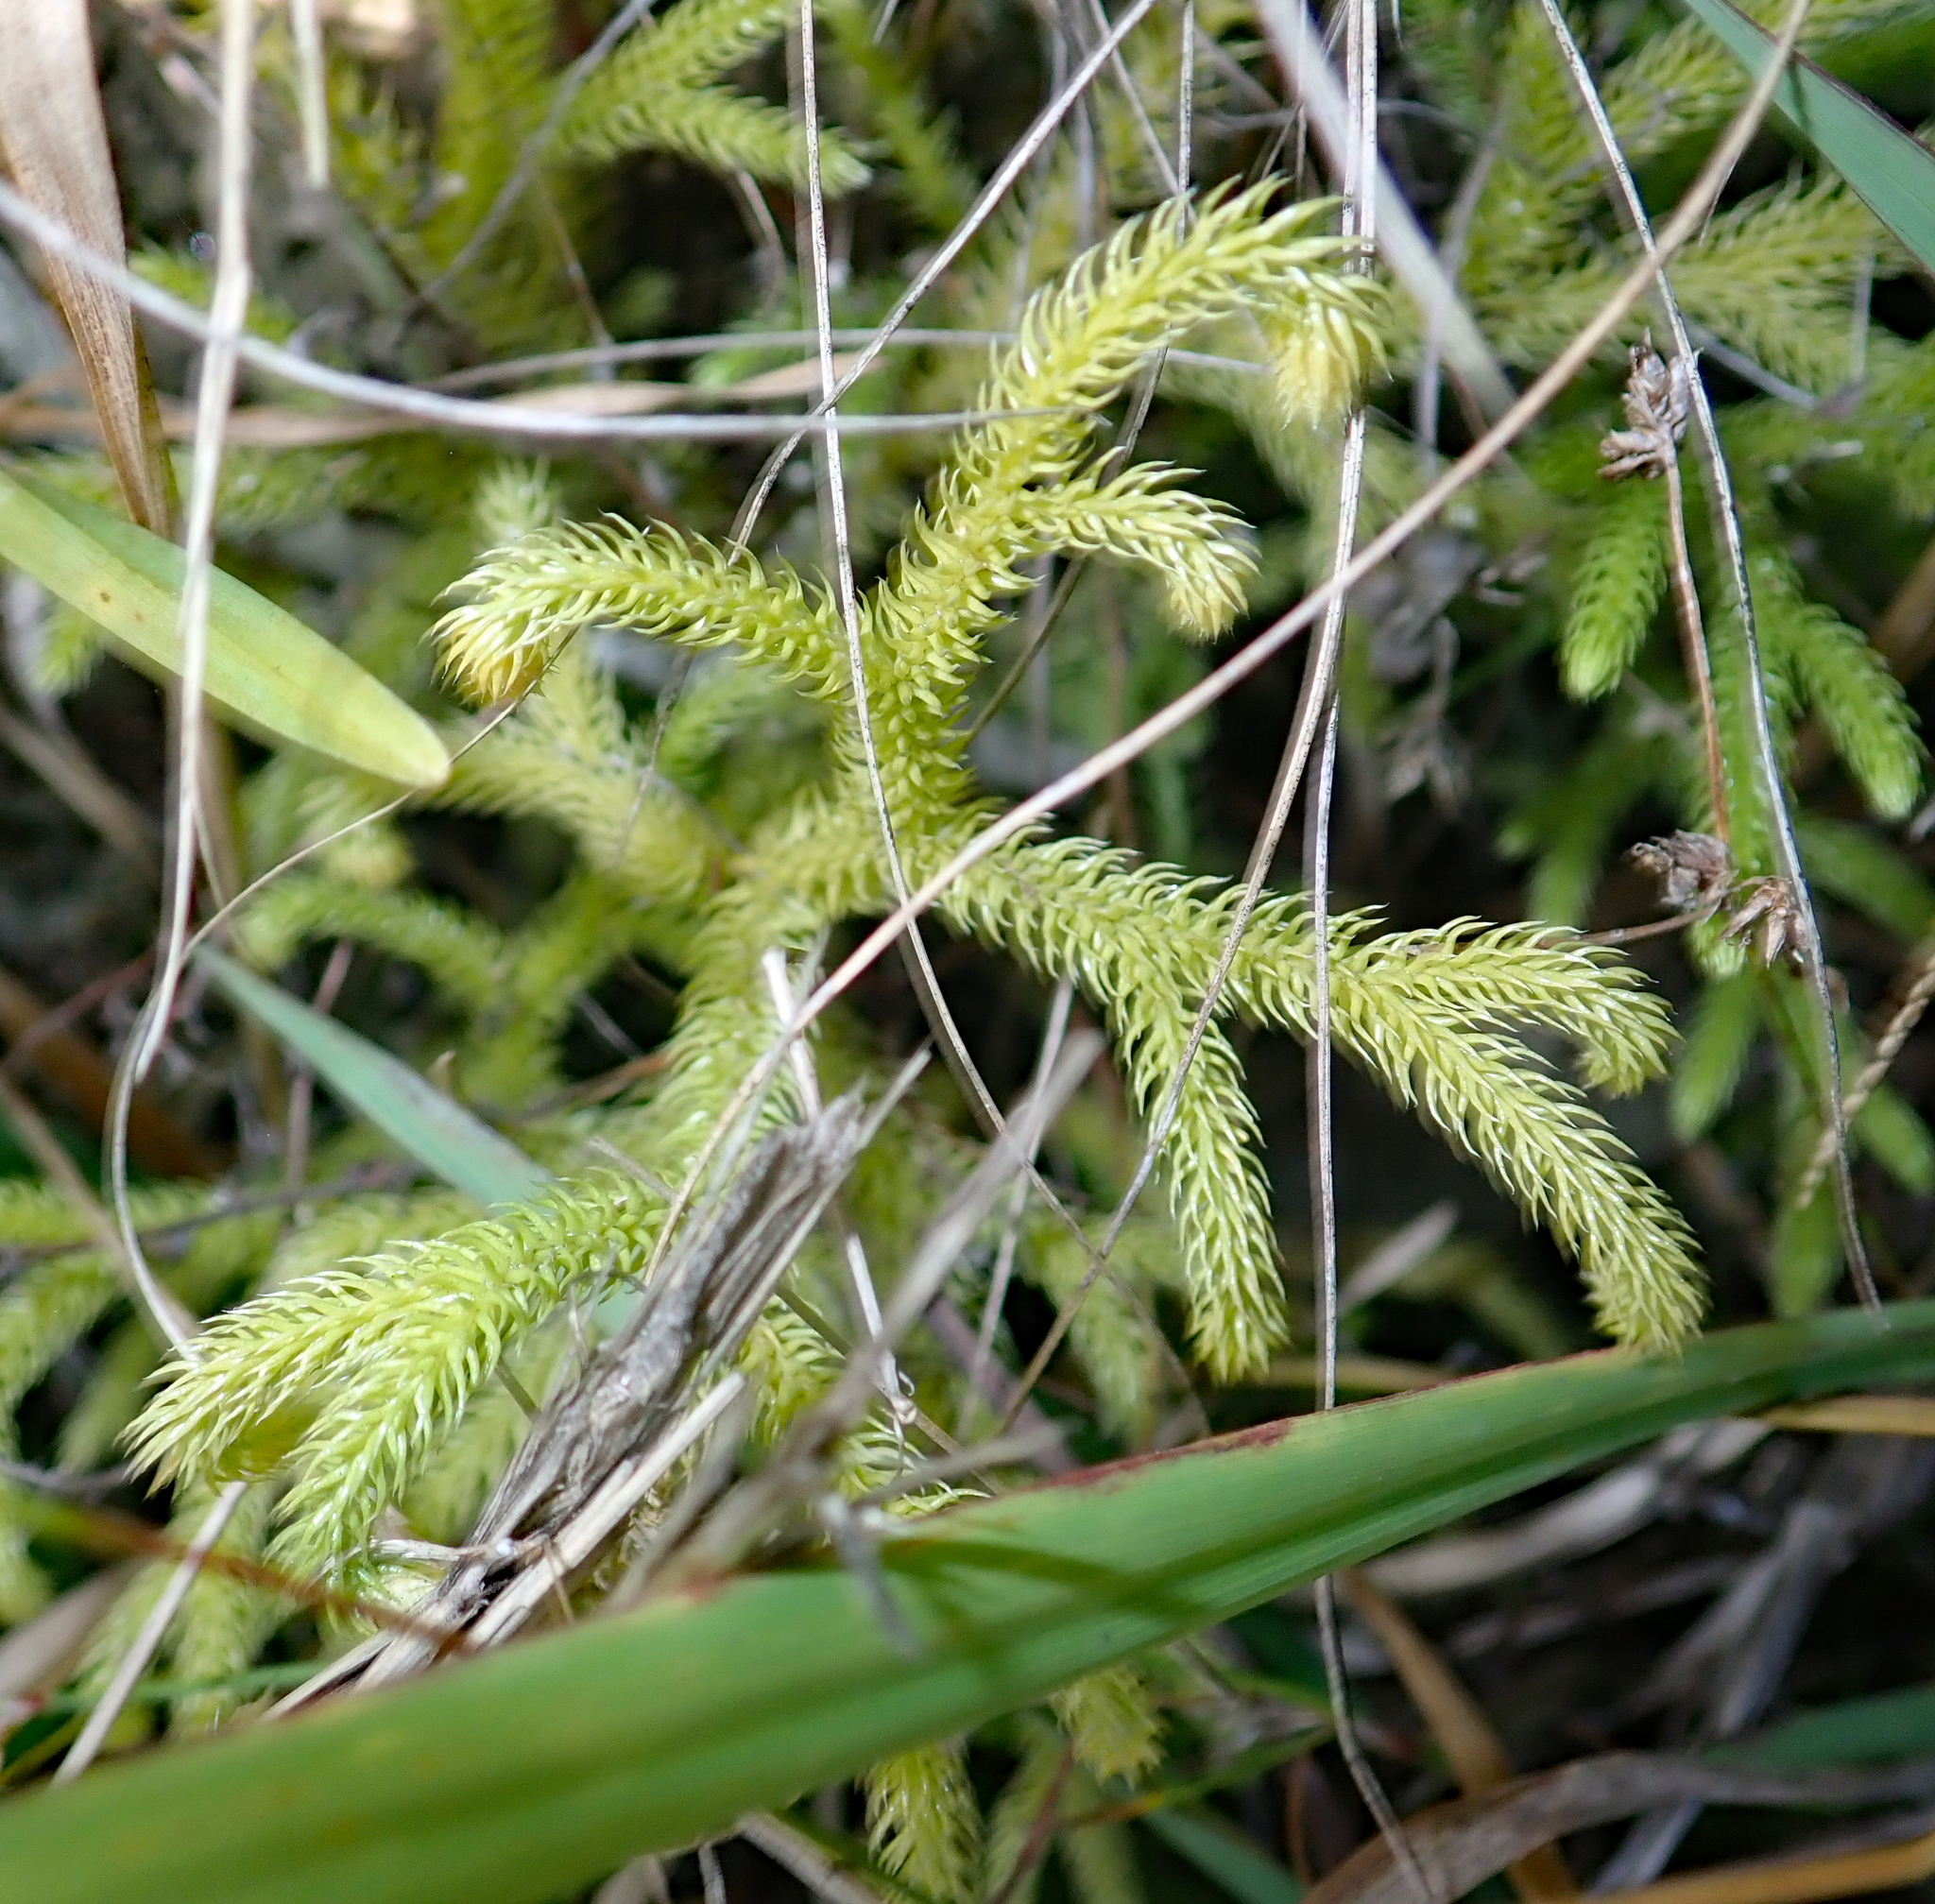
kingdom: Plantae
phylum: Tracheophyta
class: Lycopodiopsida
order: Lycopodiales
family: Lycopodiaceae
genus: Palhinhaea
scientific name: Palhinhaea cernua
